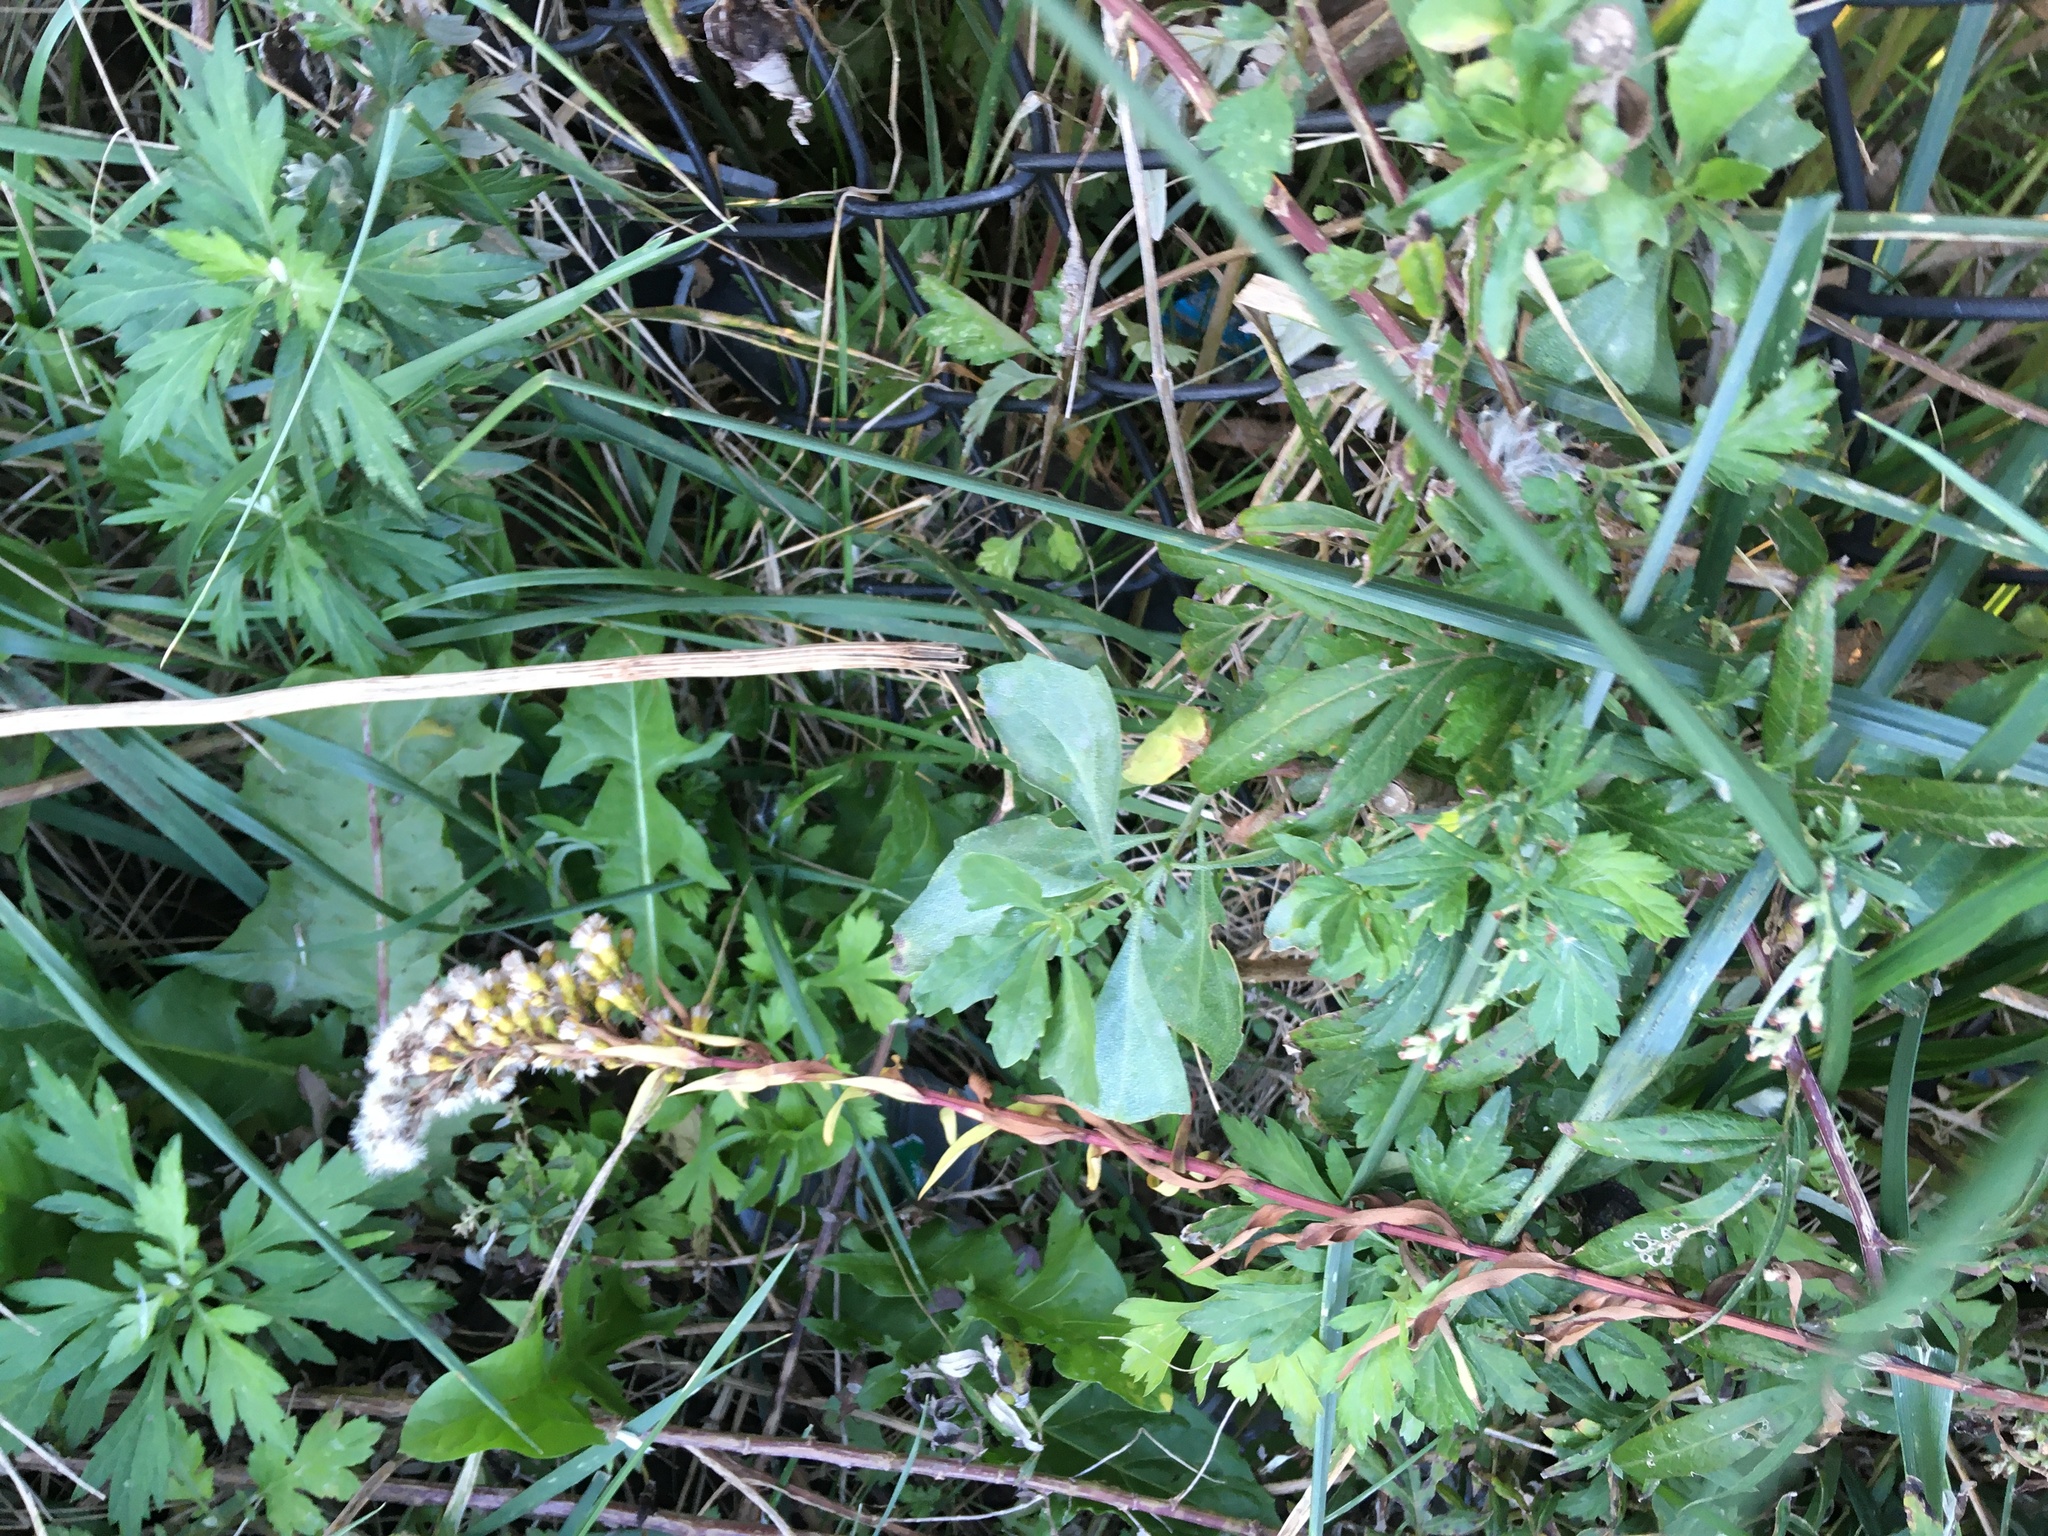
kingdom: Plantae
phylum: Tracheophyta
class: Magnoliopsida
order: Asterales
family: Asteraceae
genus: Artemisia
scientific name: Artemisia vulgaris
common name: Mugwort
